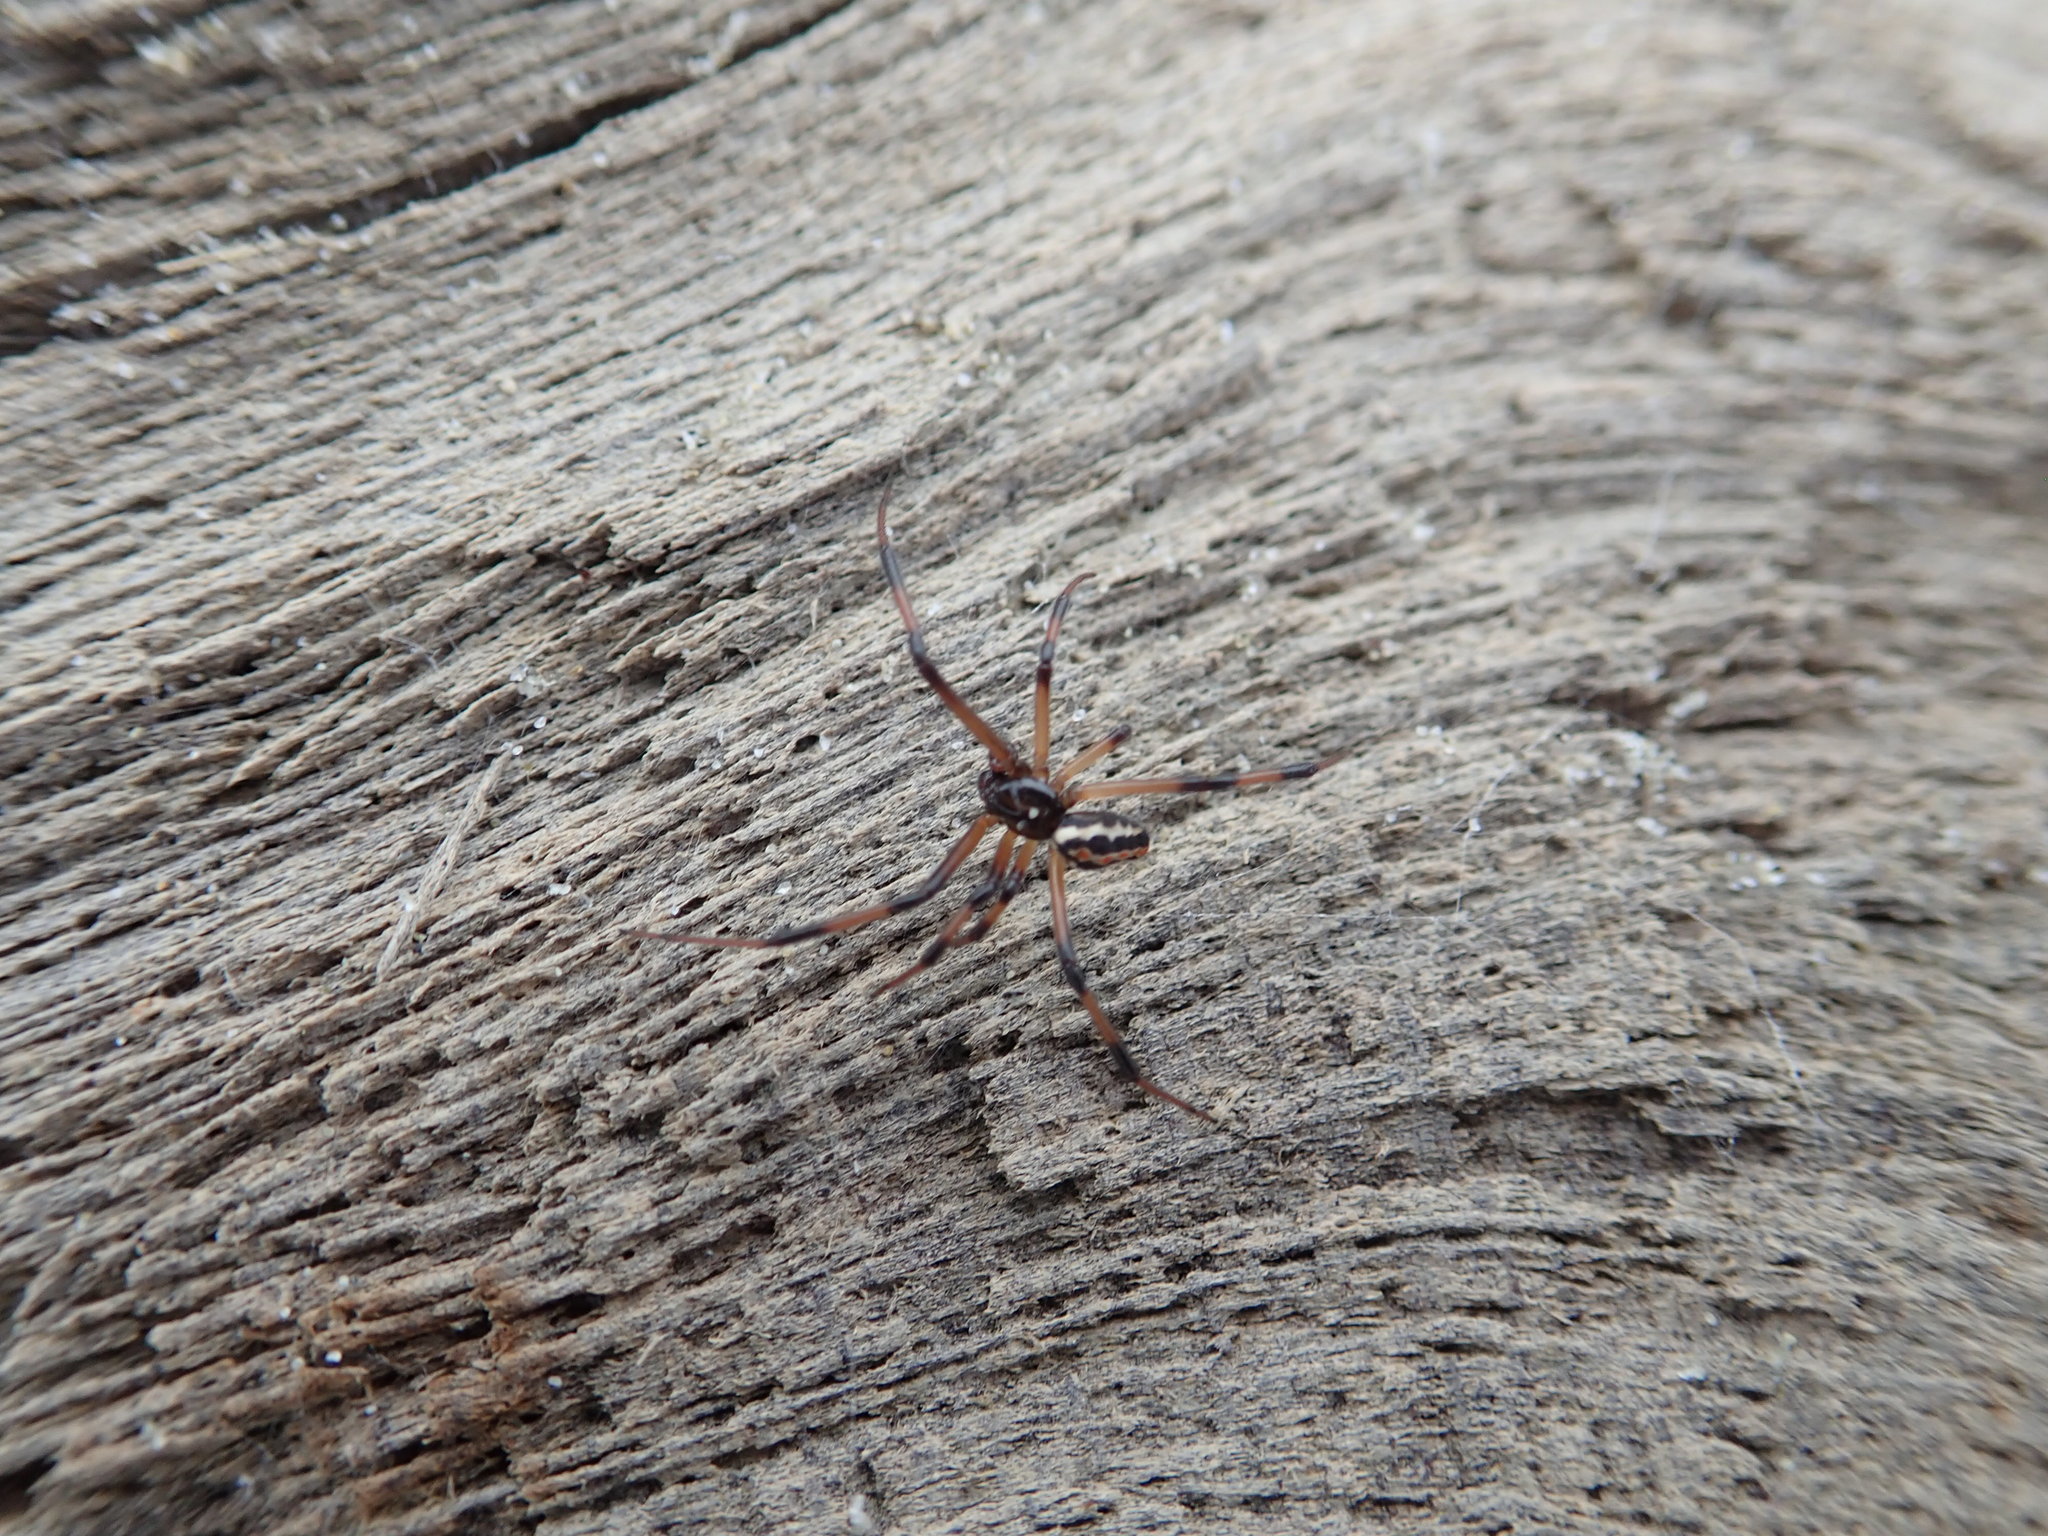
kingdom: Animalia
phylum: Arthropoda
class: Arachnida
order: Araneae
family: Theridiidae
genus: Latrodectus
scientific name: Latrodectus katipo
